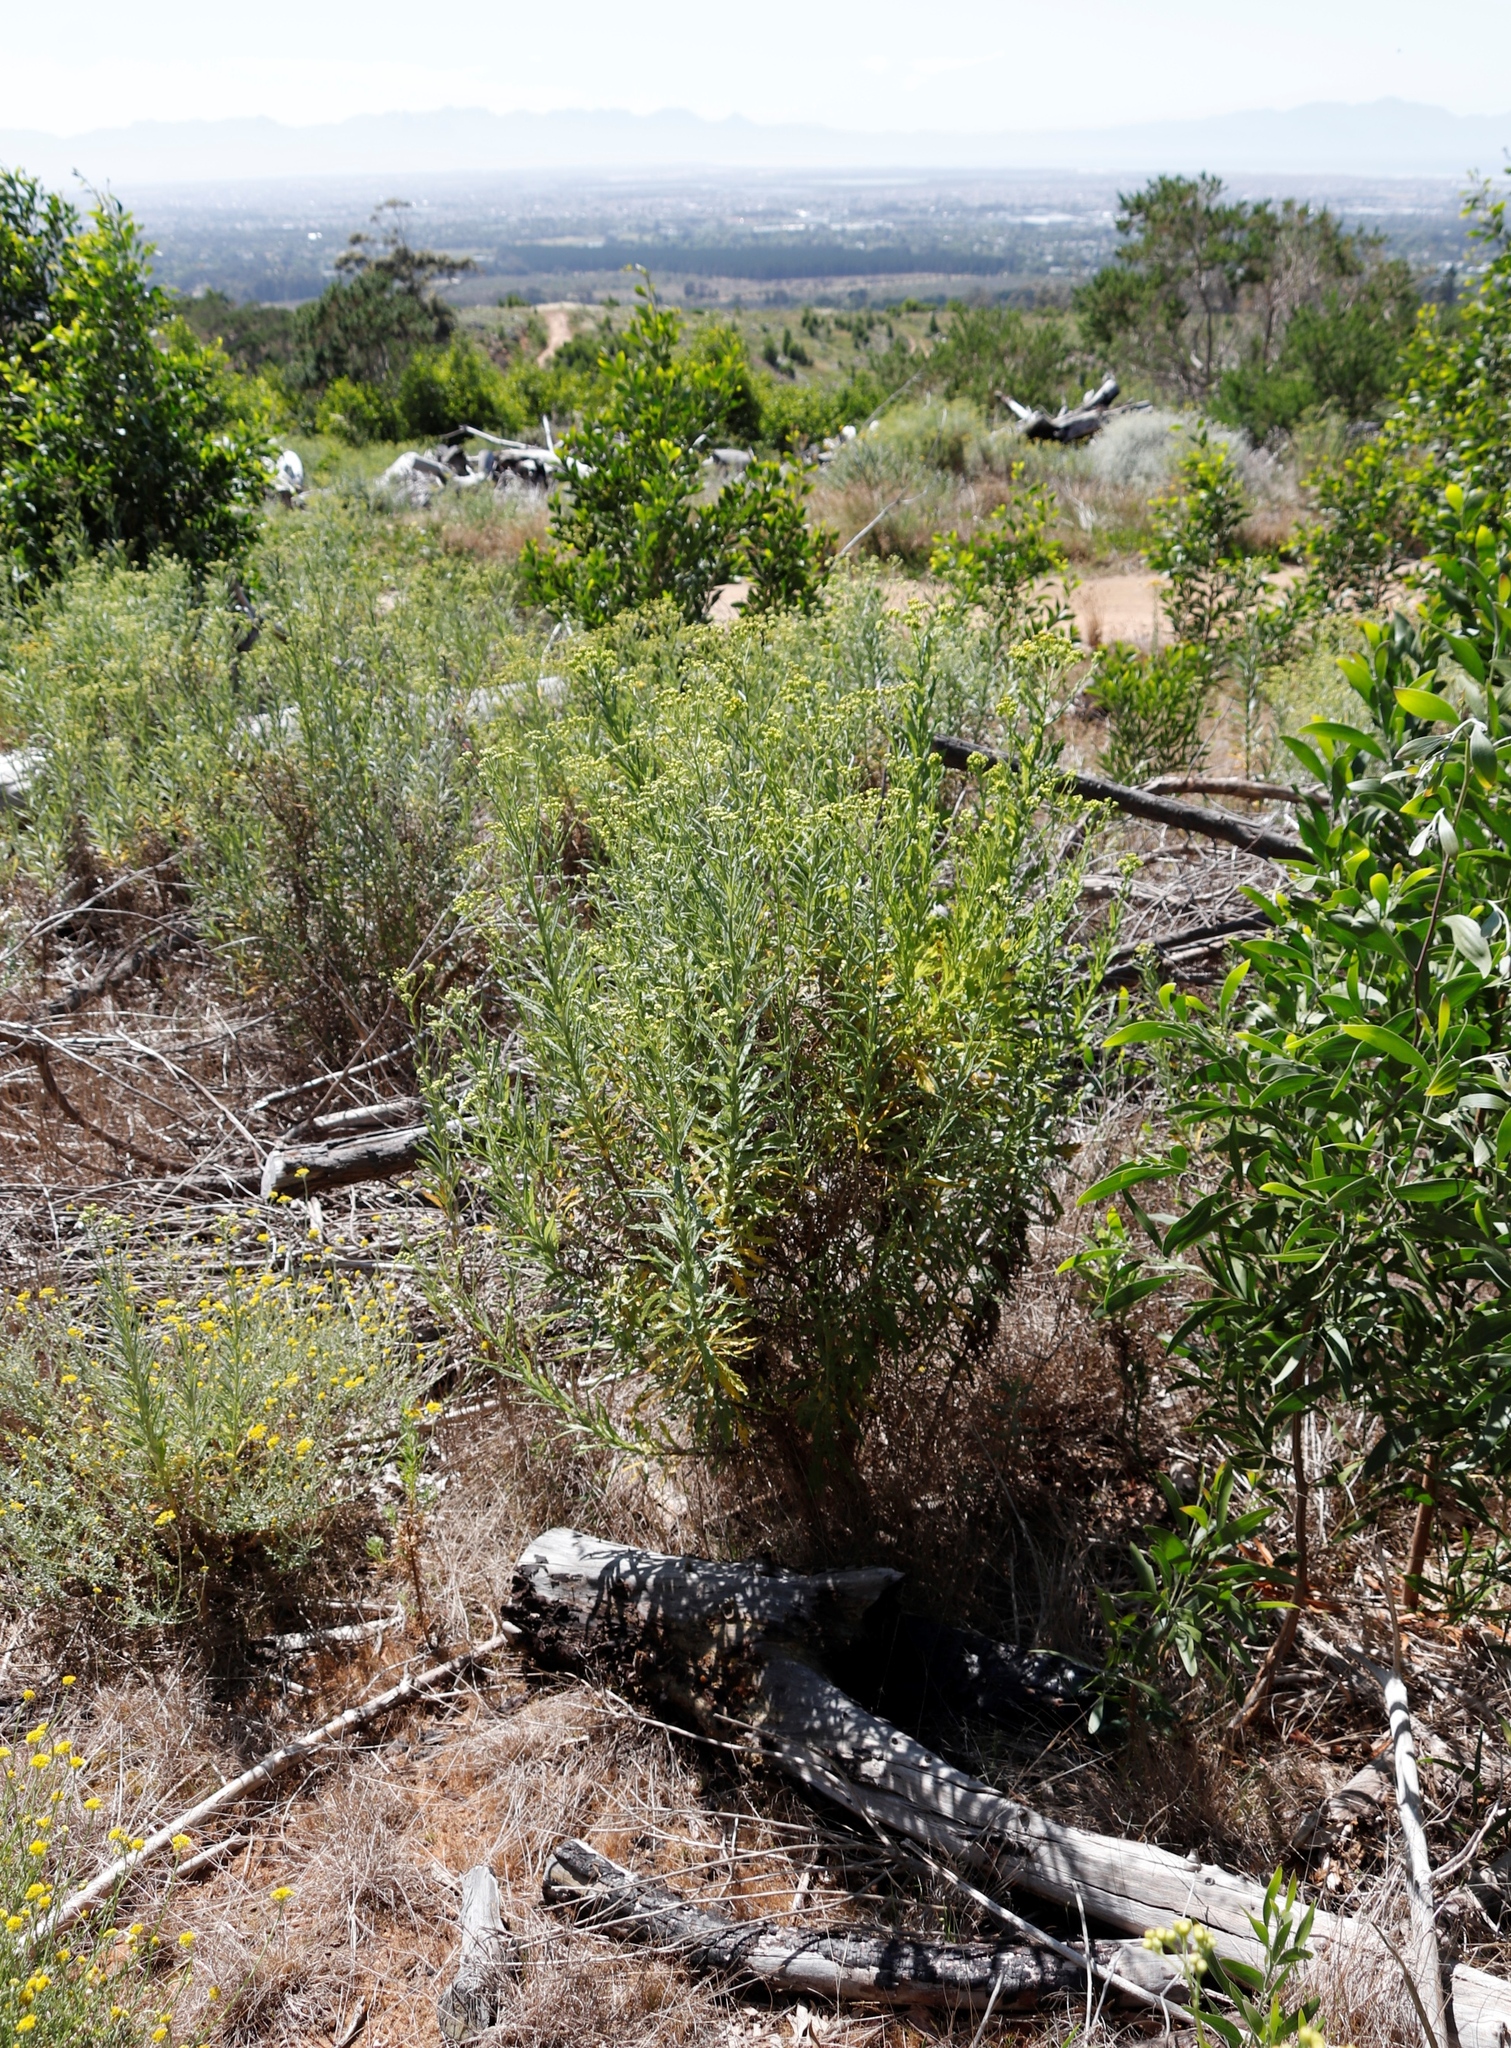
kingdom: Plantae
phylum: Tracheophyta
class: Magnoliopsida
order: Asterales
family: Asteraceae
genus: Senecio
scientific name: Senecio pterophorus
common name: Shoddy ragwort
